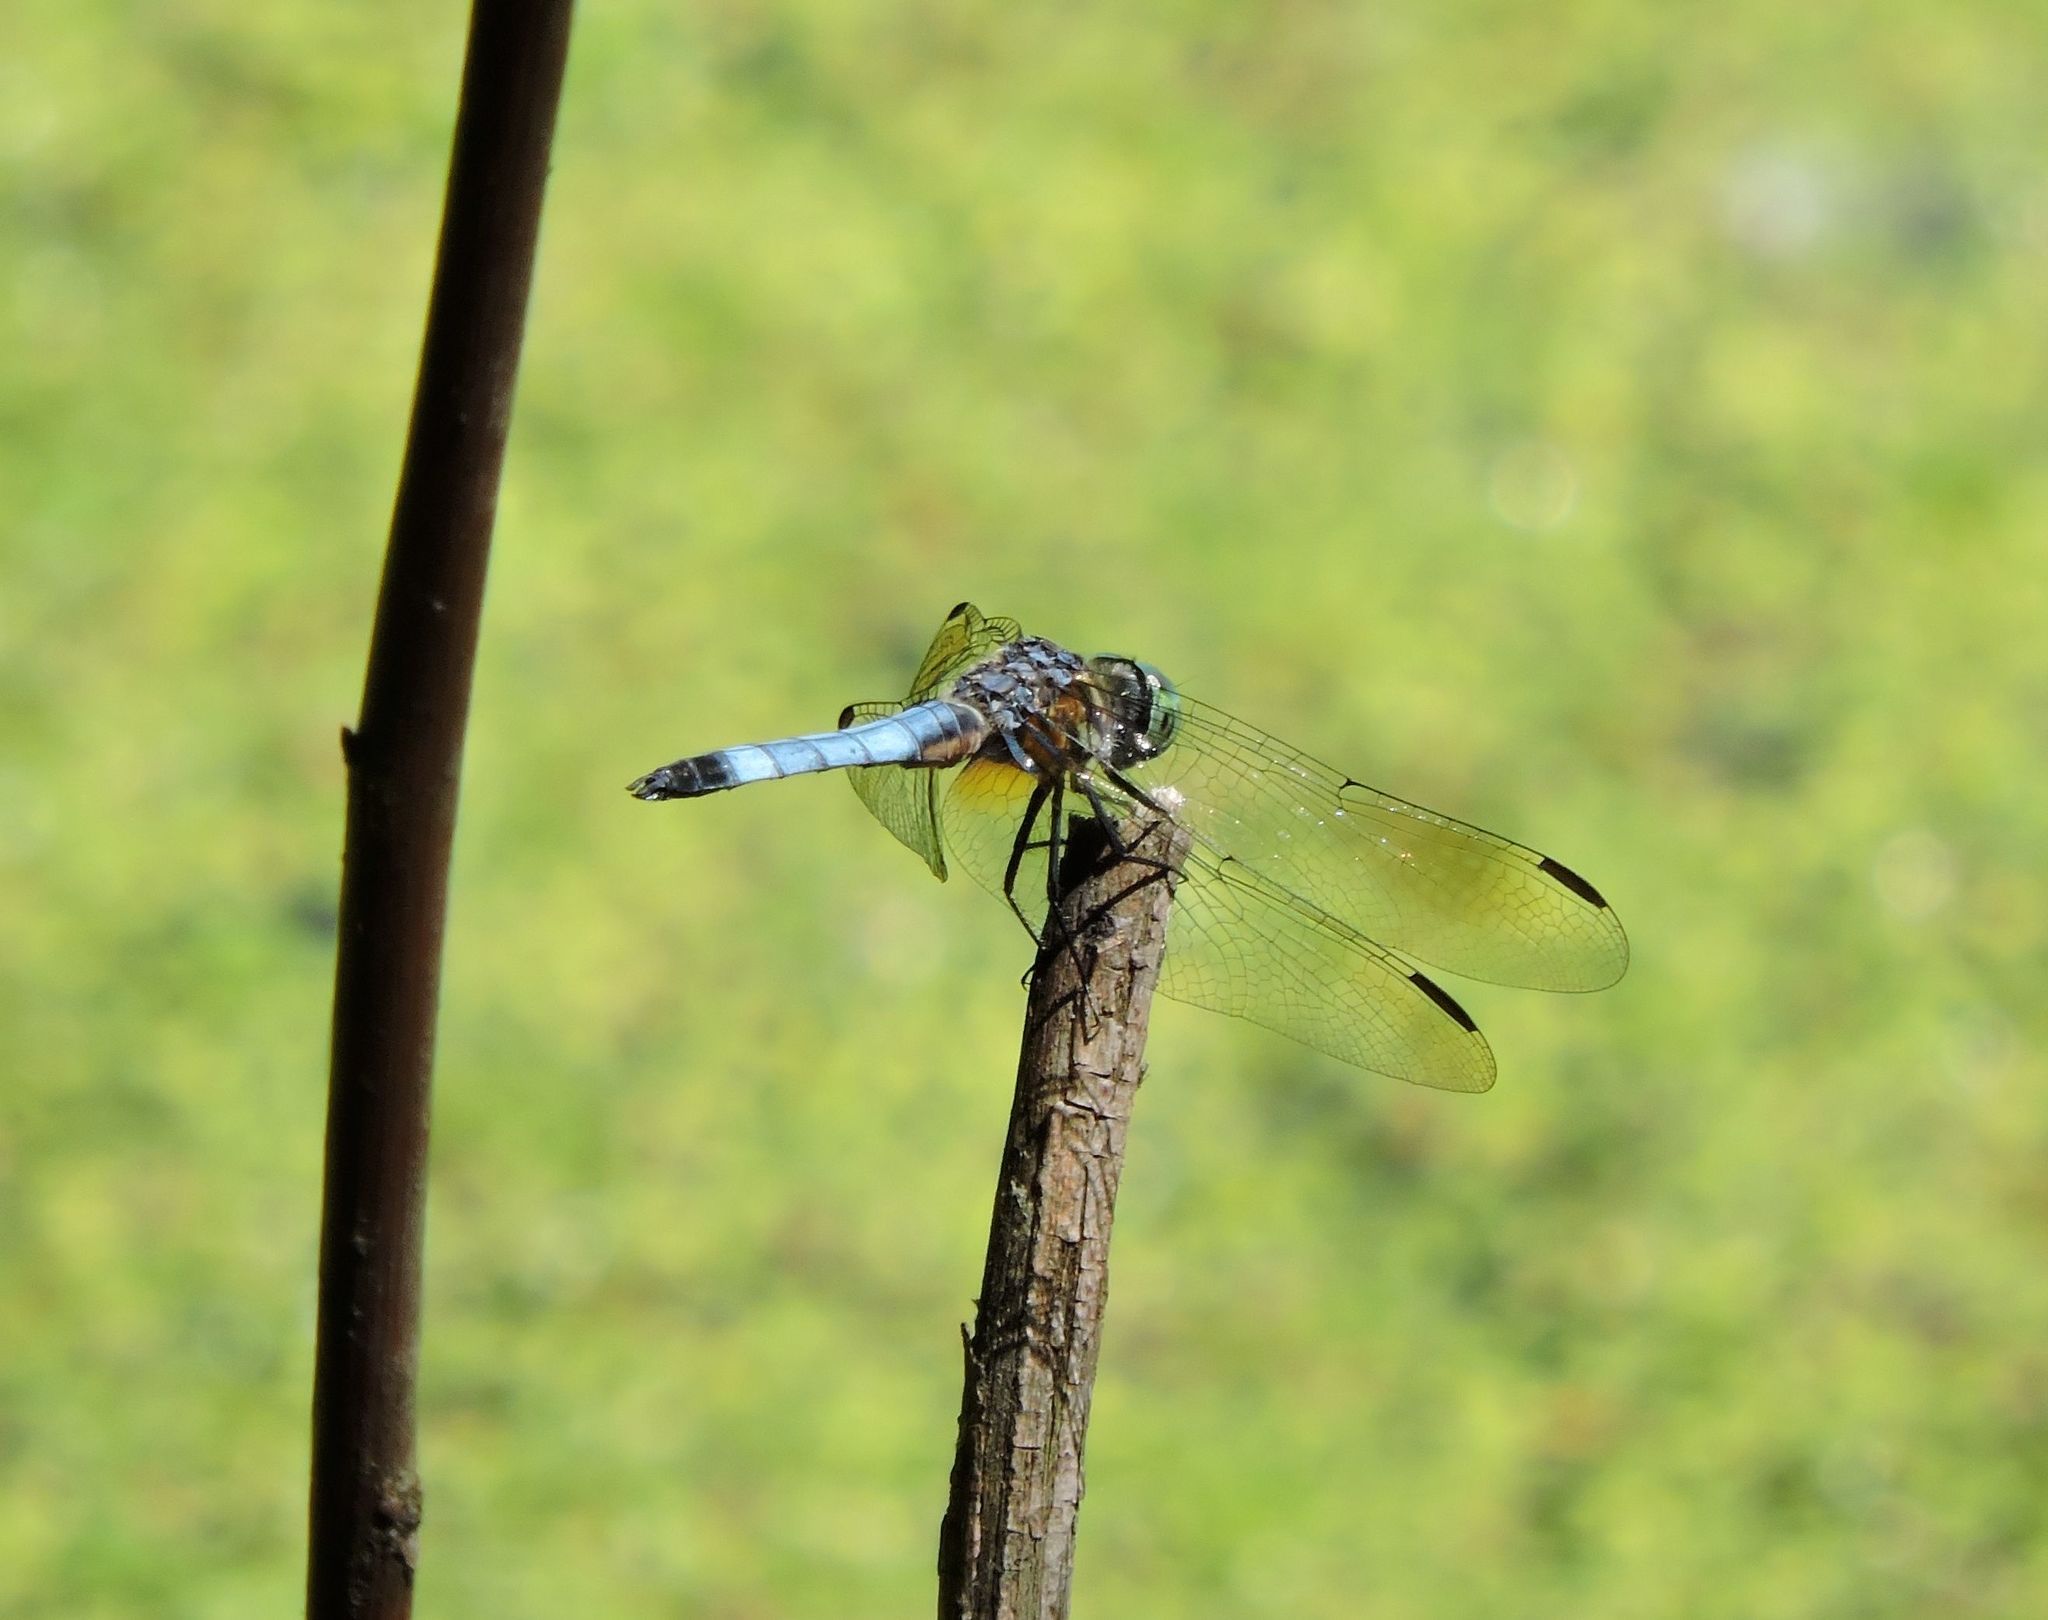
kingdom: Animalia
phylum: Arthropoda
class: Insecta
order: Odonata
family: Libellulidae
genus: Pachydiplax
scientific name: Pachydiplax longipennis
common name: Blue dasher
